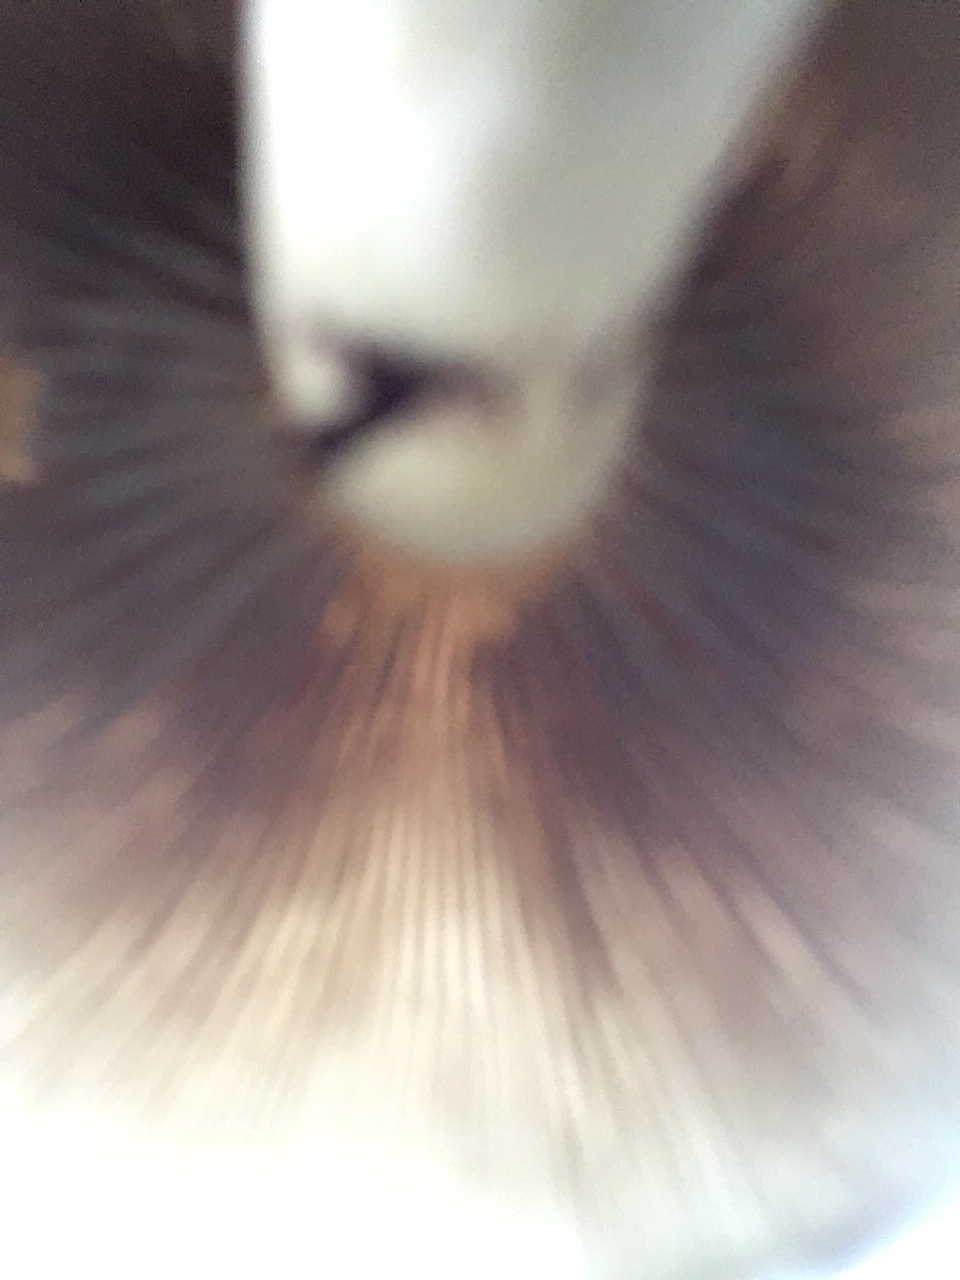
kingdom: Fungi
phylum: Basidiomycota
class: Agaricomycetes
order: Agaricales
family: Strophariaceae
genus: Hypholoma
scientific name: Hypholoma fasciculare
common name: Sulphur tuft
